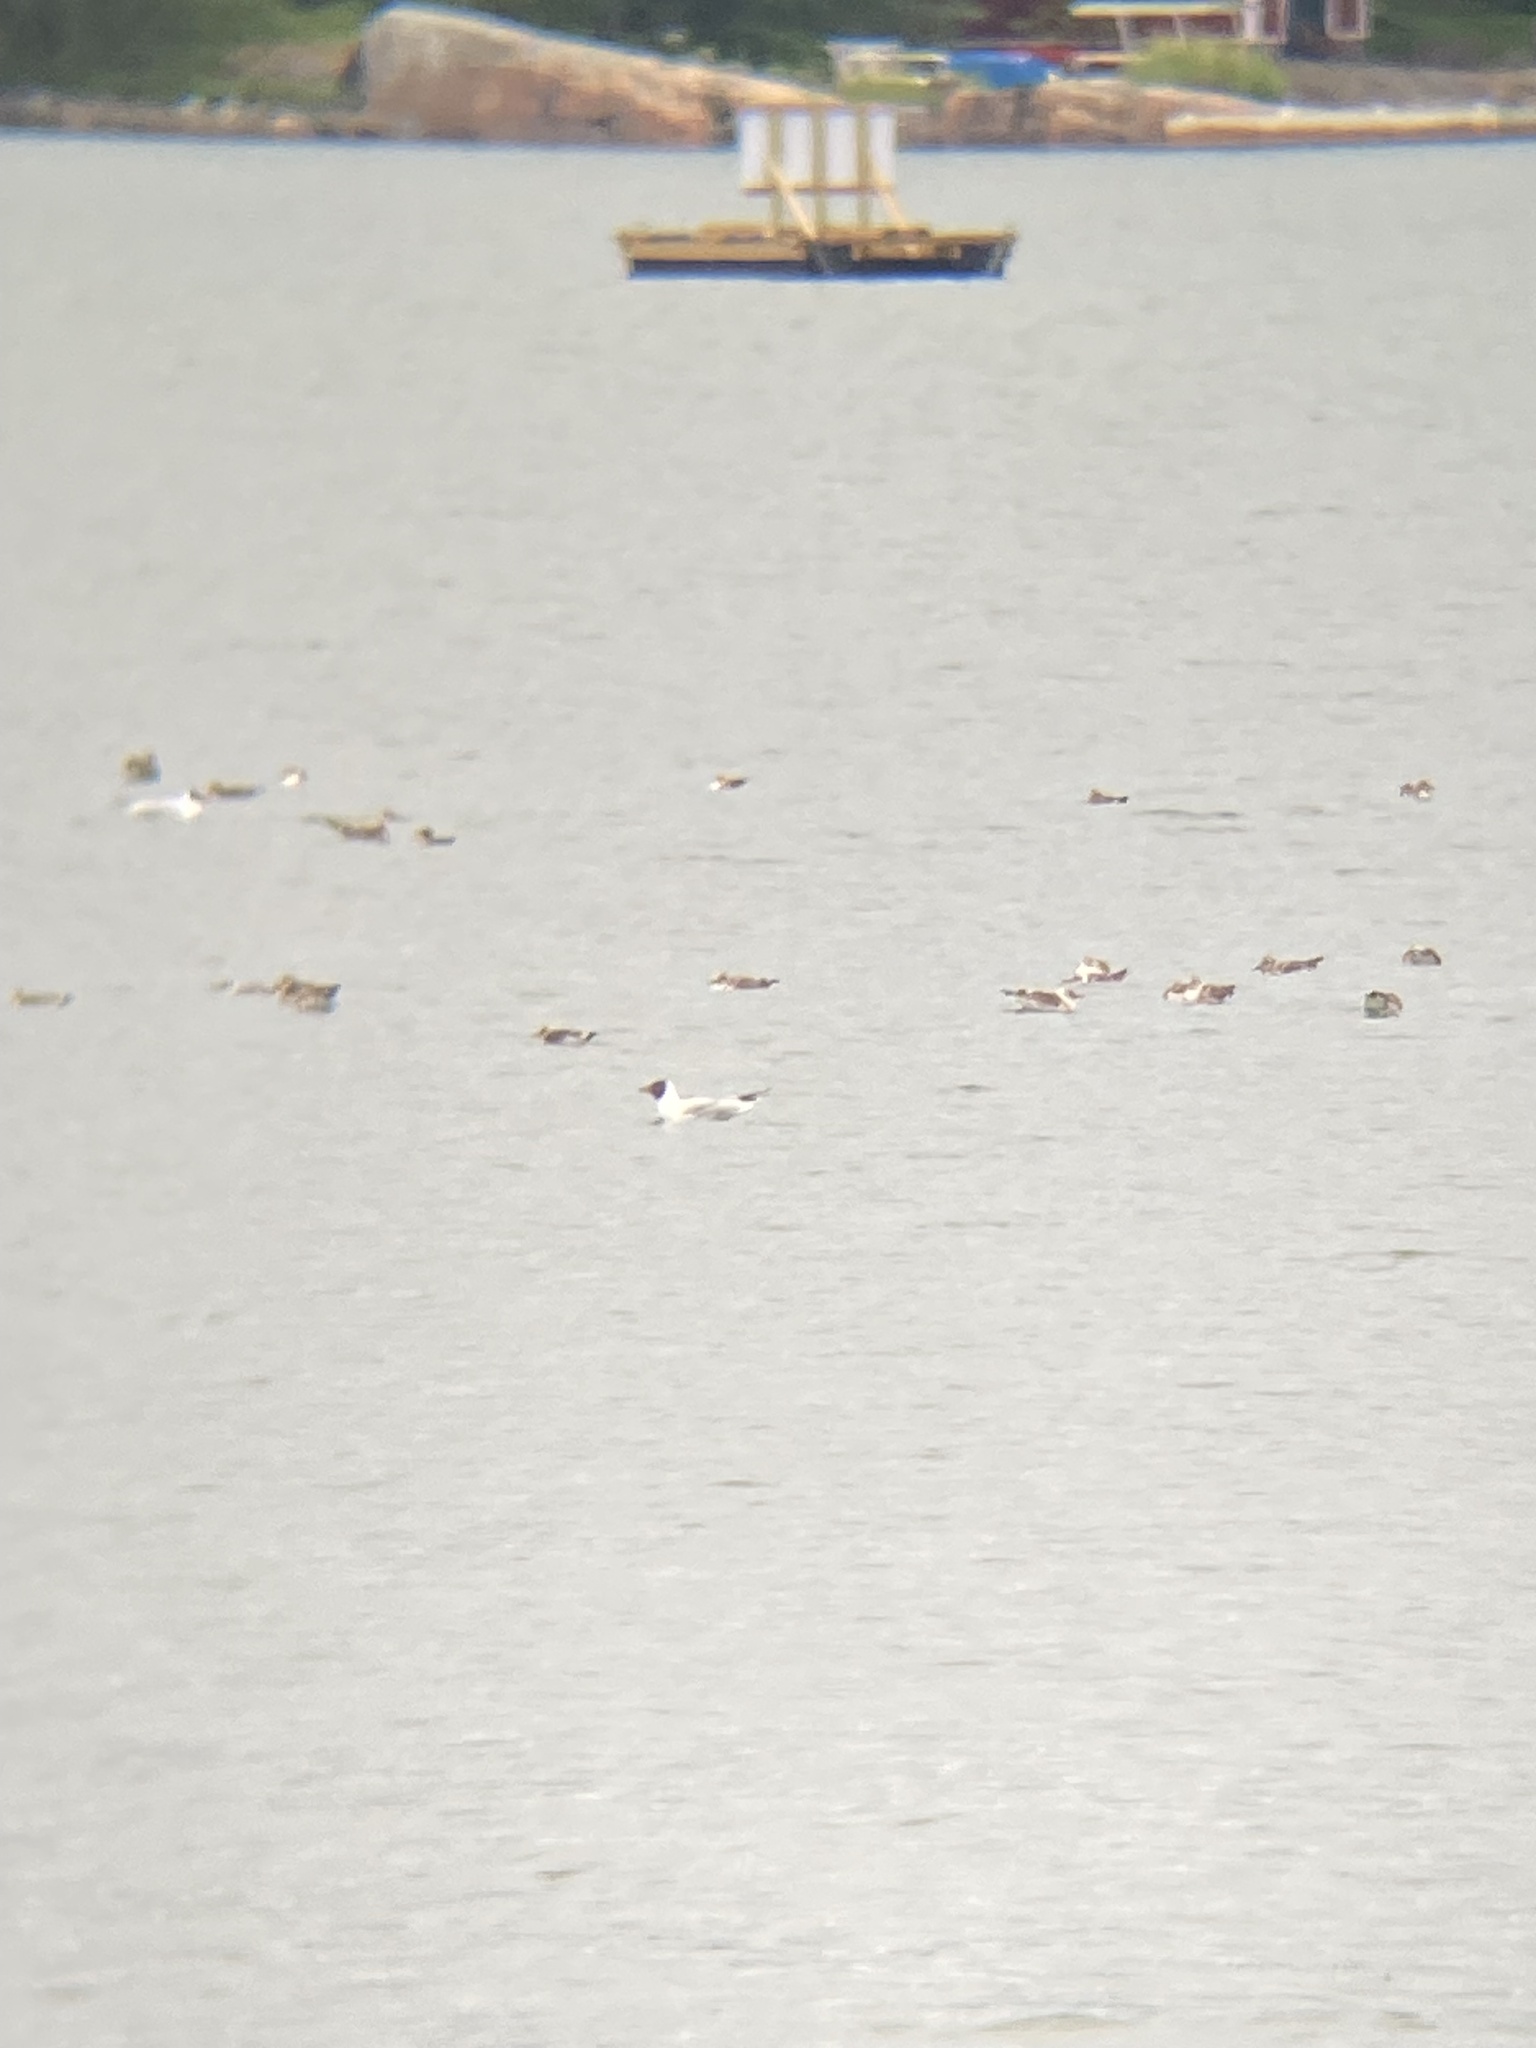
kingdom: Animalia
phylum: Chordata
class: Aves
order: Charadriiformes
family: Laridae
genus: Chroicocephalus
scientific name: Chroicocephalus ridibundus
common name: Black-headed gull
